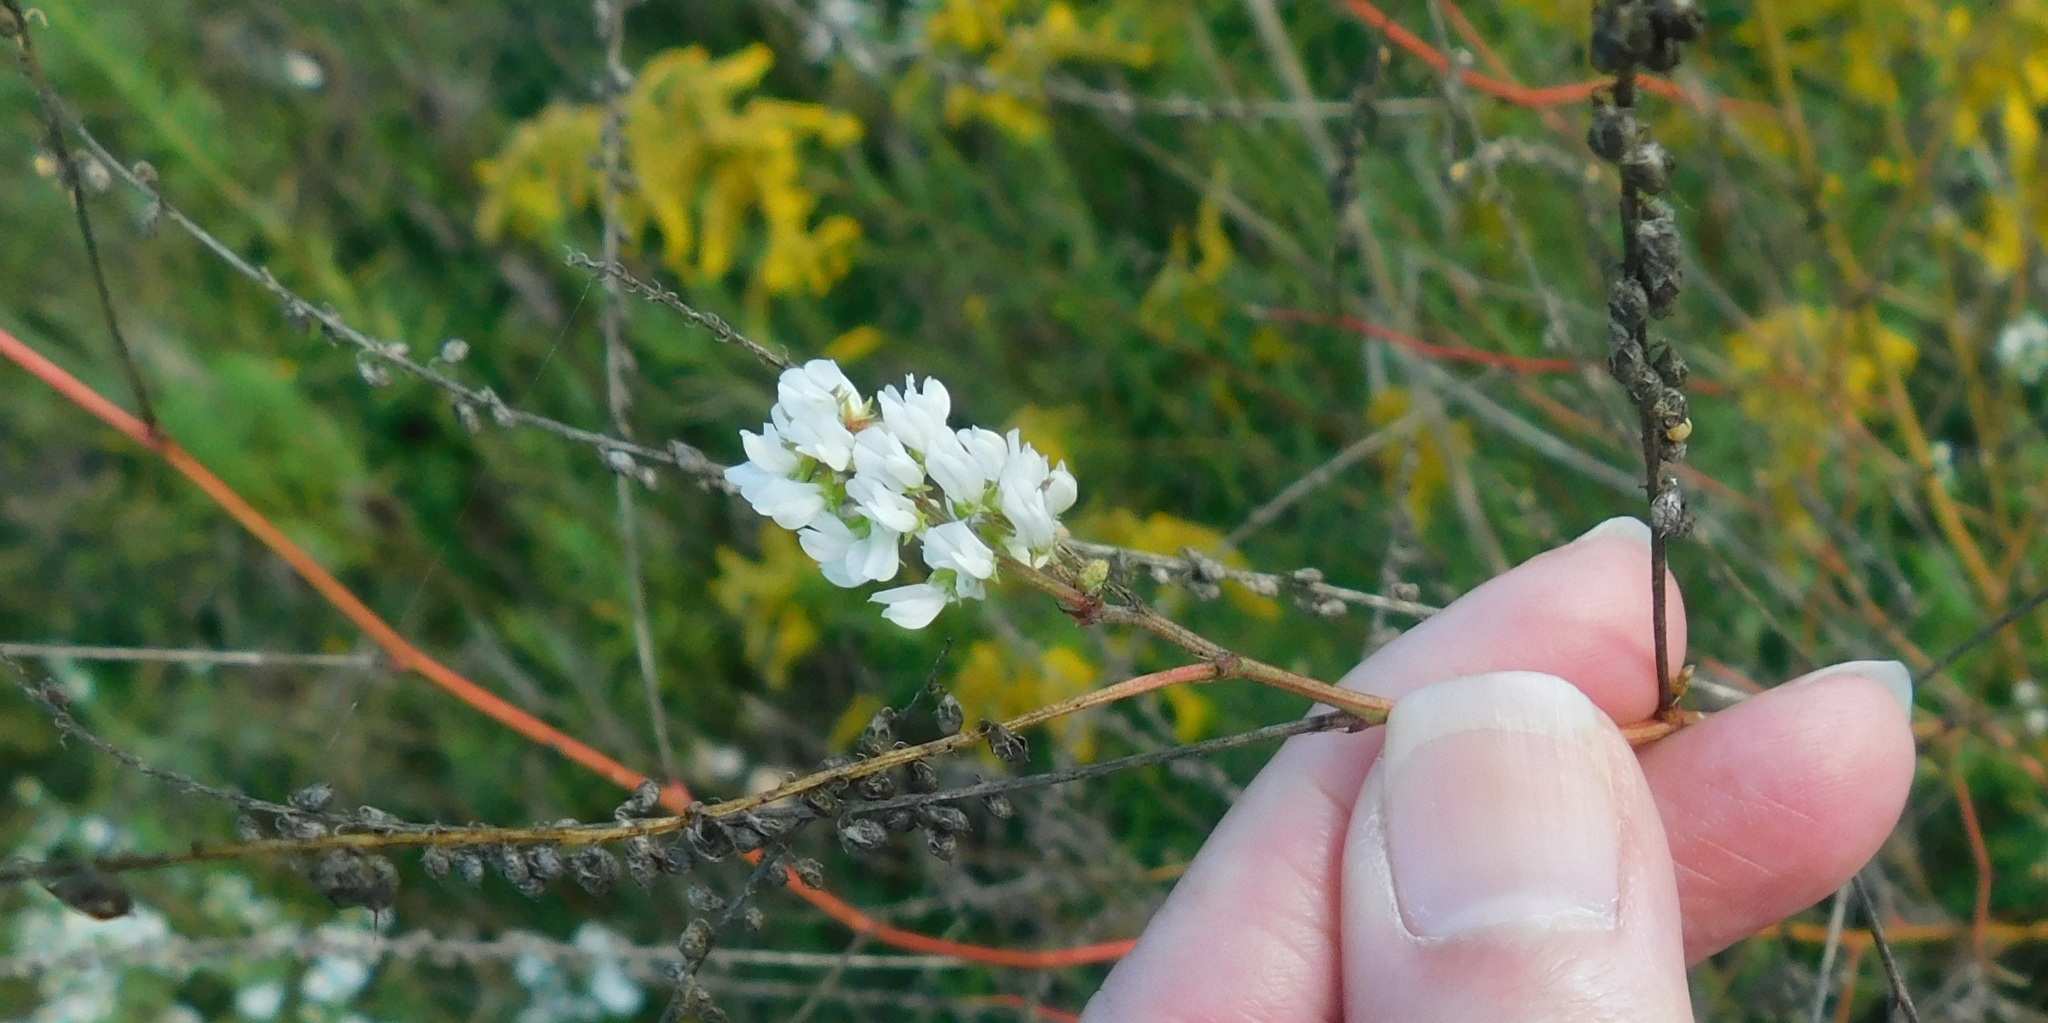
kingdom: Plantae
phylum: Tracheophyta
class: Magnoliopsida
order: Fabales
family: Fabaceae
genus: Melilotus
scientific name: Melilotus albus
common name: White melilot
